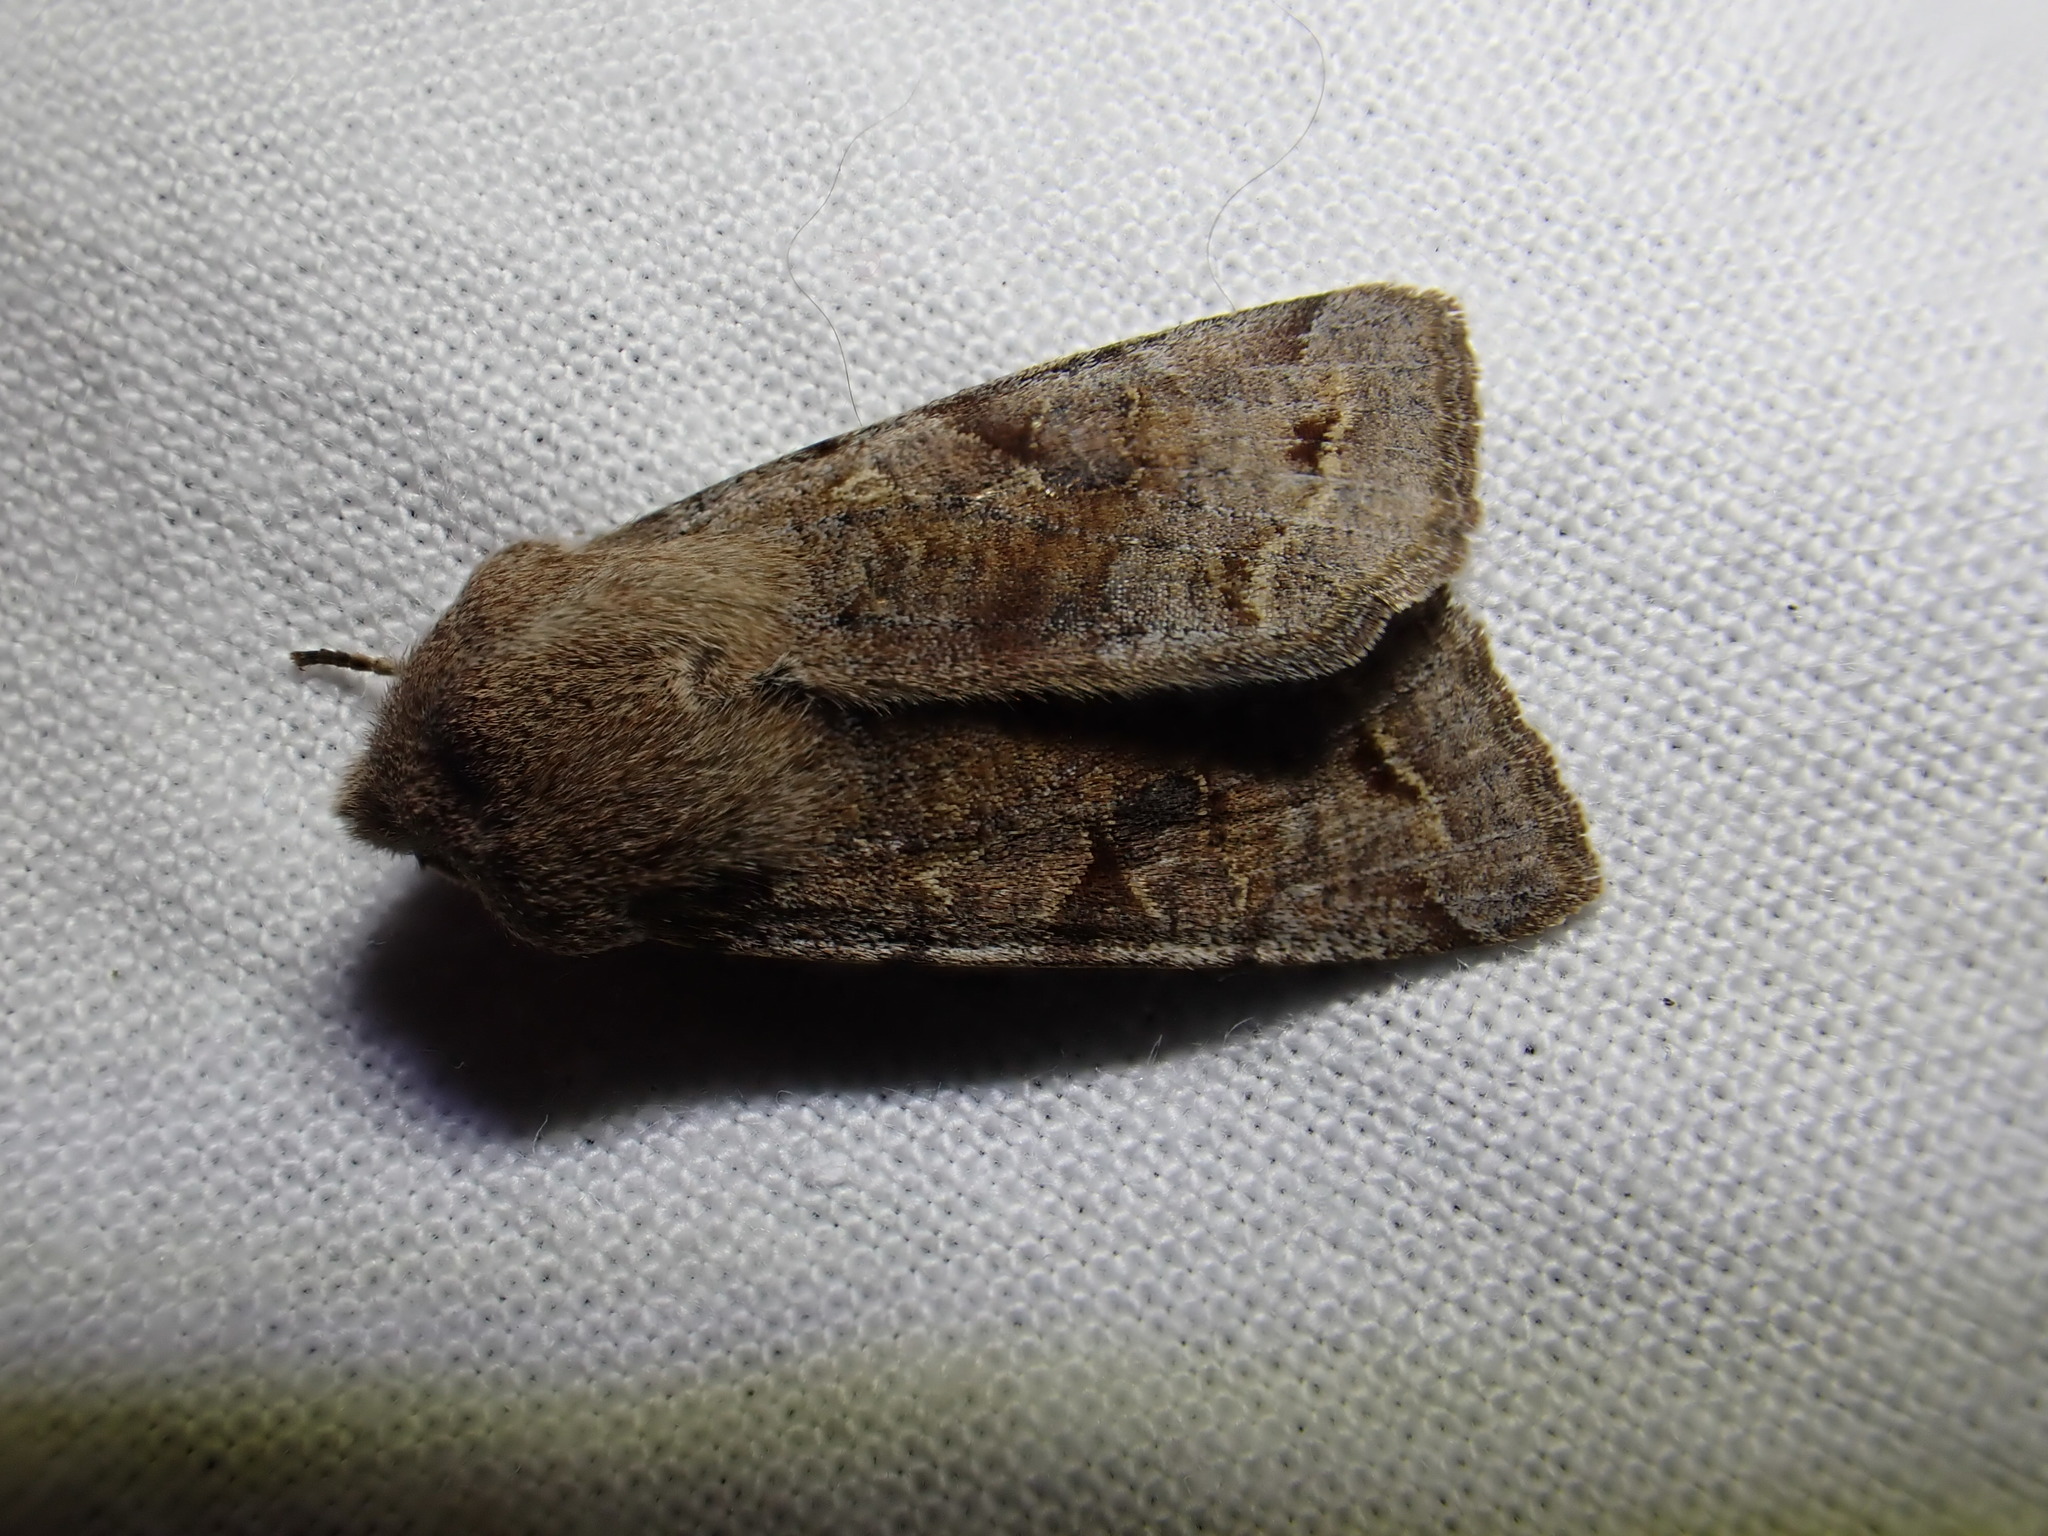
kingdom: Animalia
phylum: Arthropoda
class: Insecta
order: Lepidoptera
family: Noctuidae
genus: Orthosia
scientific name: Orthosia incerta
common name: Clouded drab
